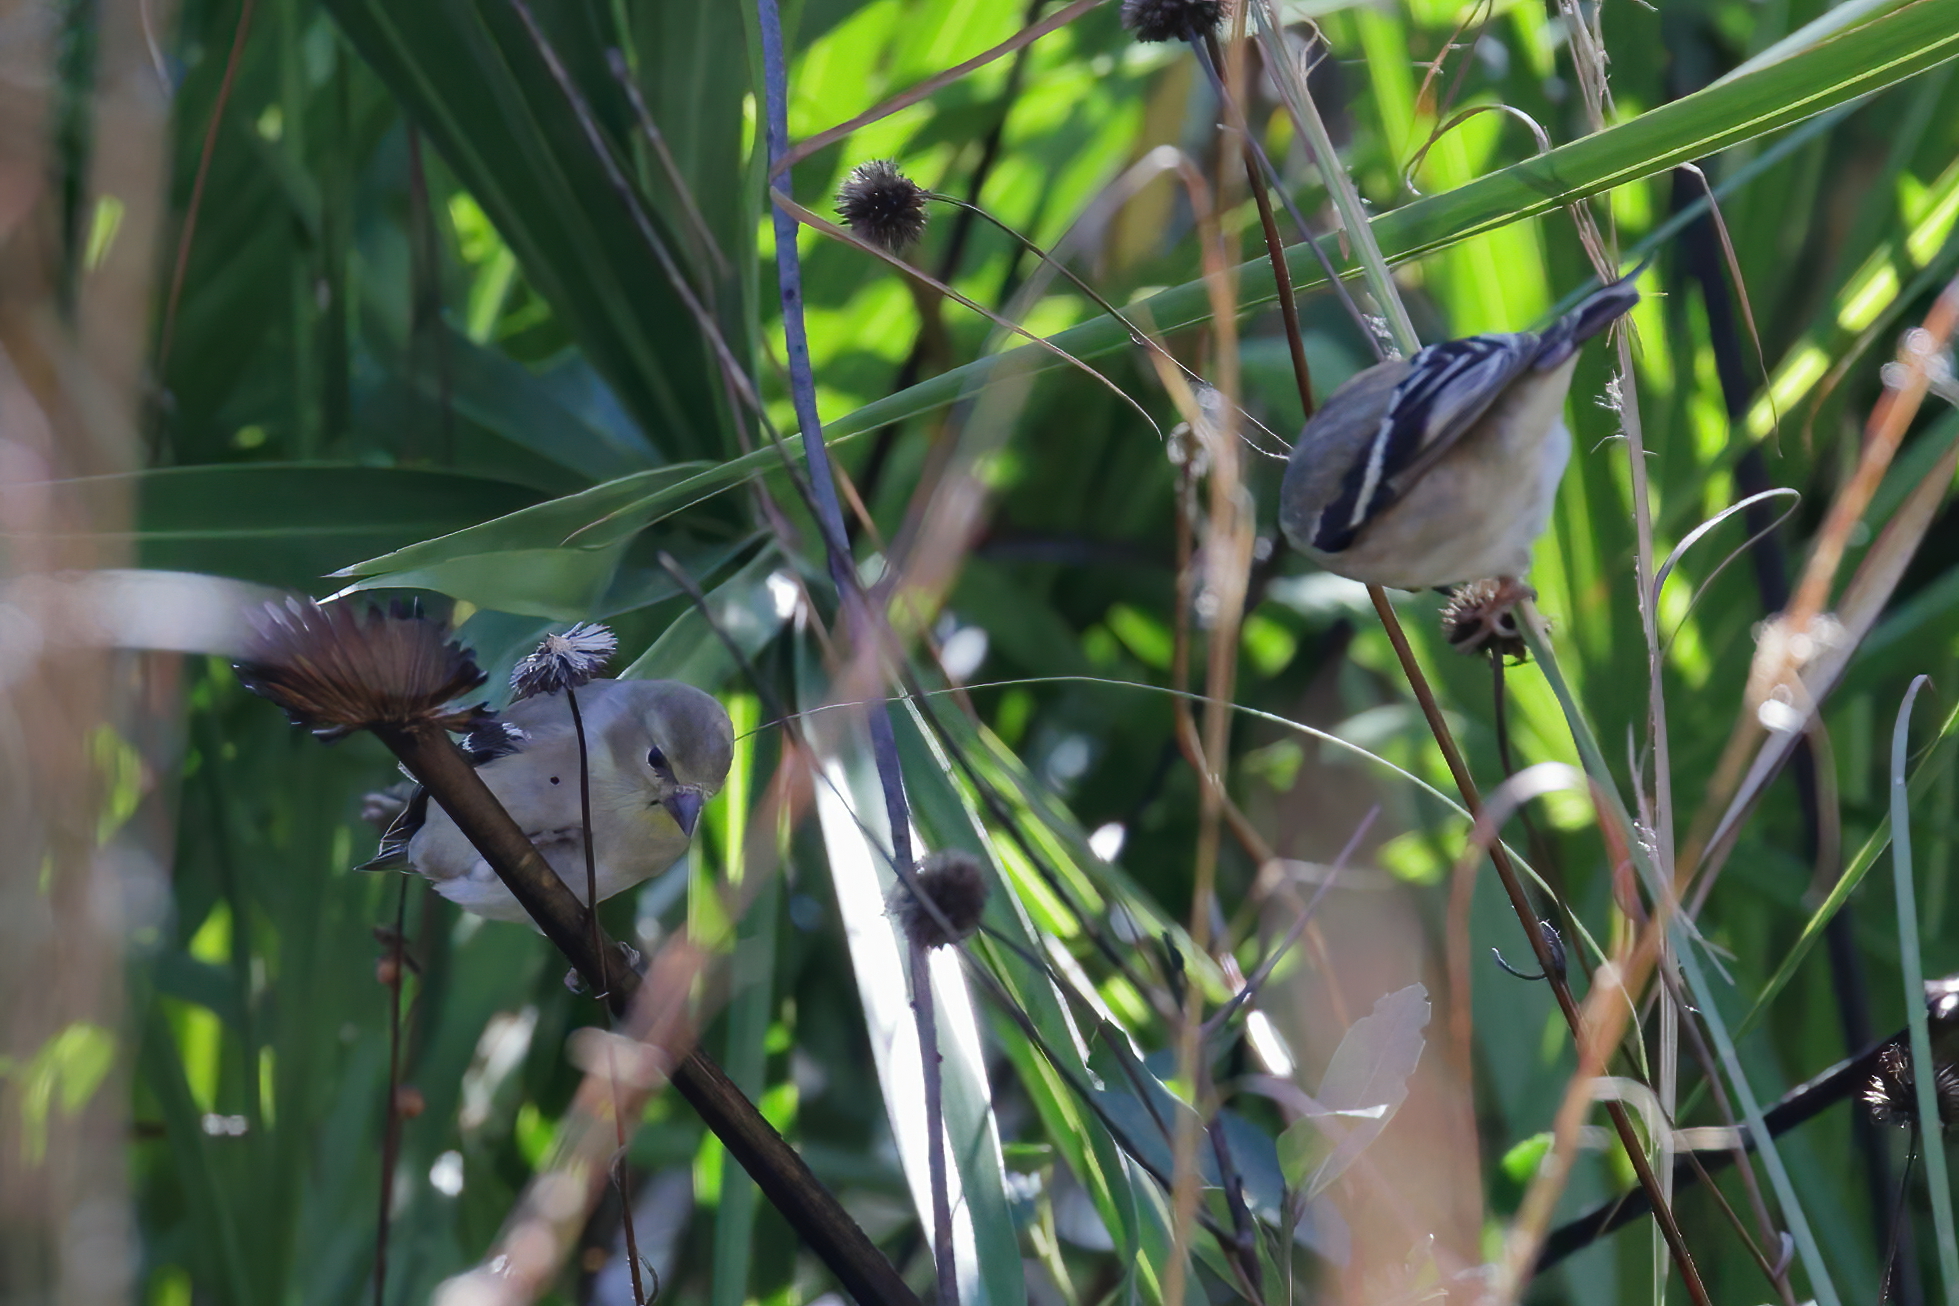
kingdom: Animalia
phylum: Chordata
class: Aves
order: Passeriformes
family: Fringillidae
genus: Spinus
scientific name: Spinus tristis
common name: American goldfinch
